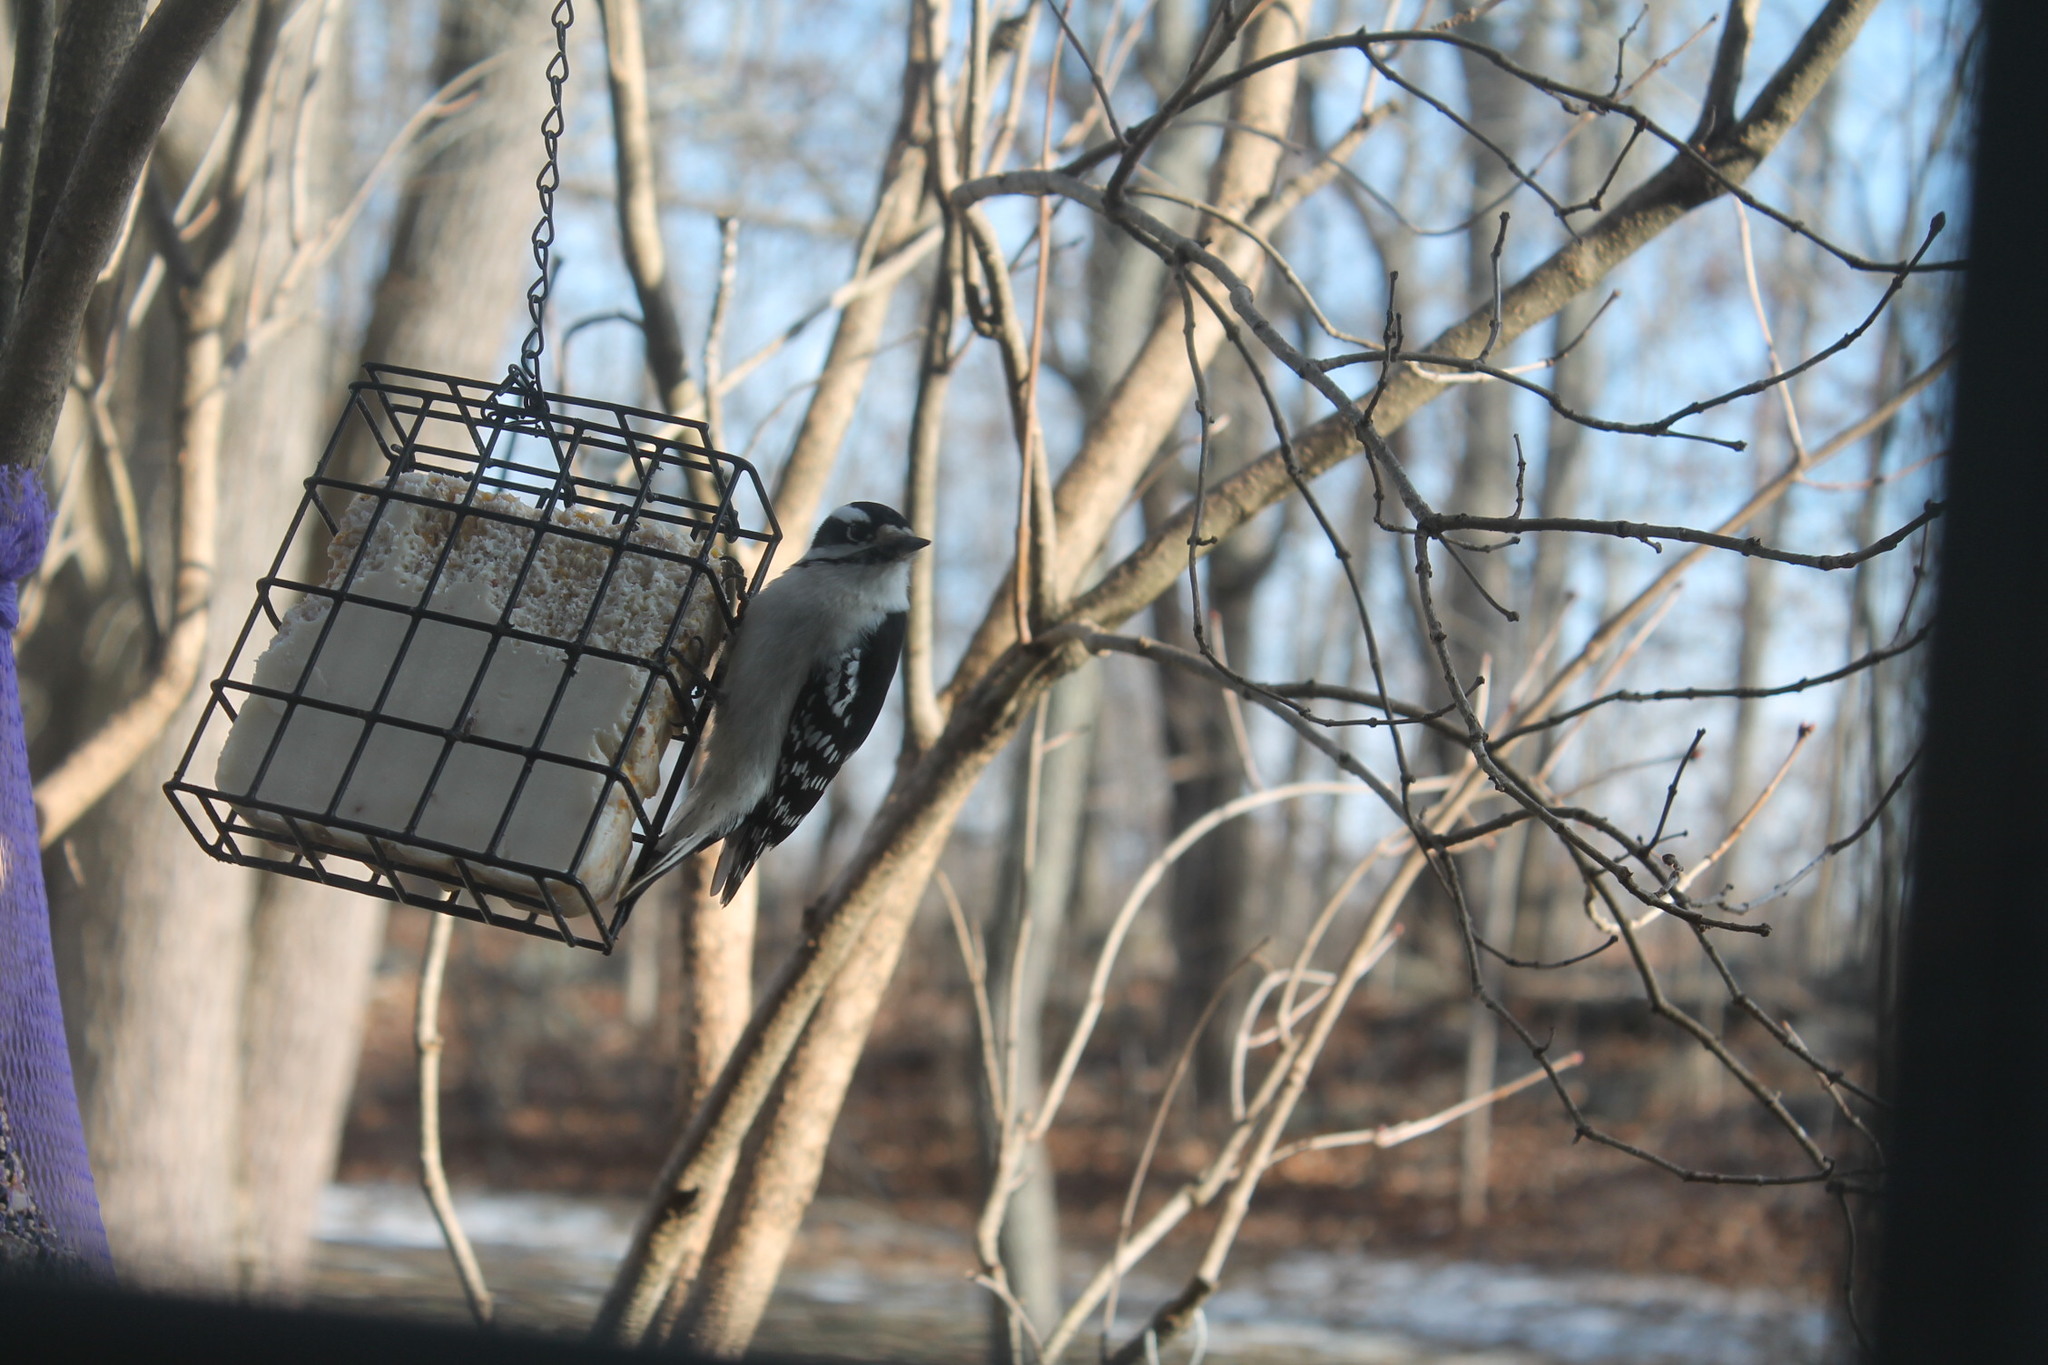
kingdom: Animalia
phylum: Chordata
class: Aves
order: Piciformes
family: Picidae
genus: Dryobates
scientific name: Dryobates pubescens
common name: Downy woodpecker
